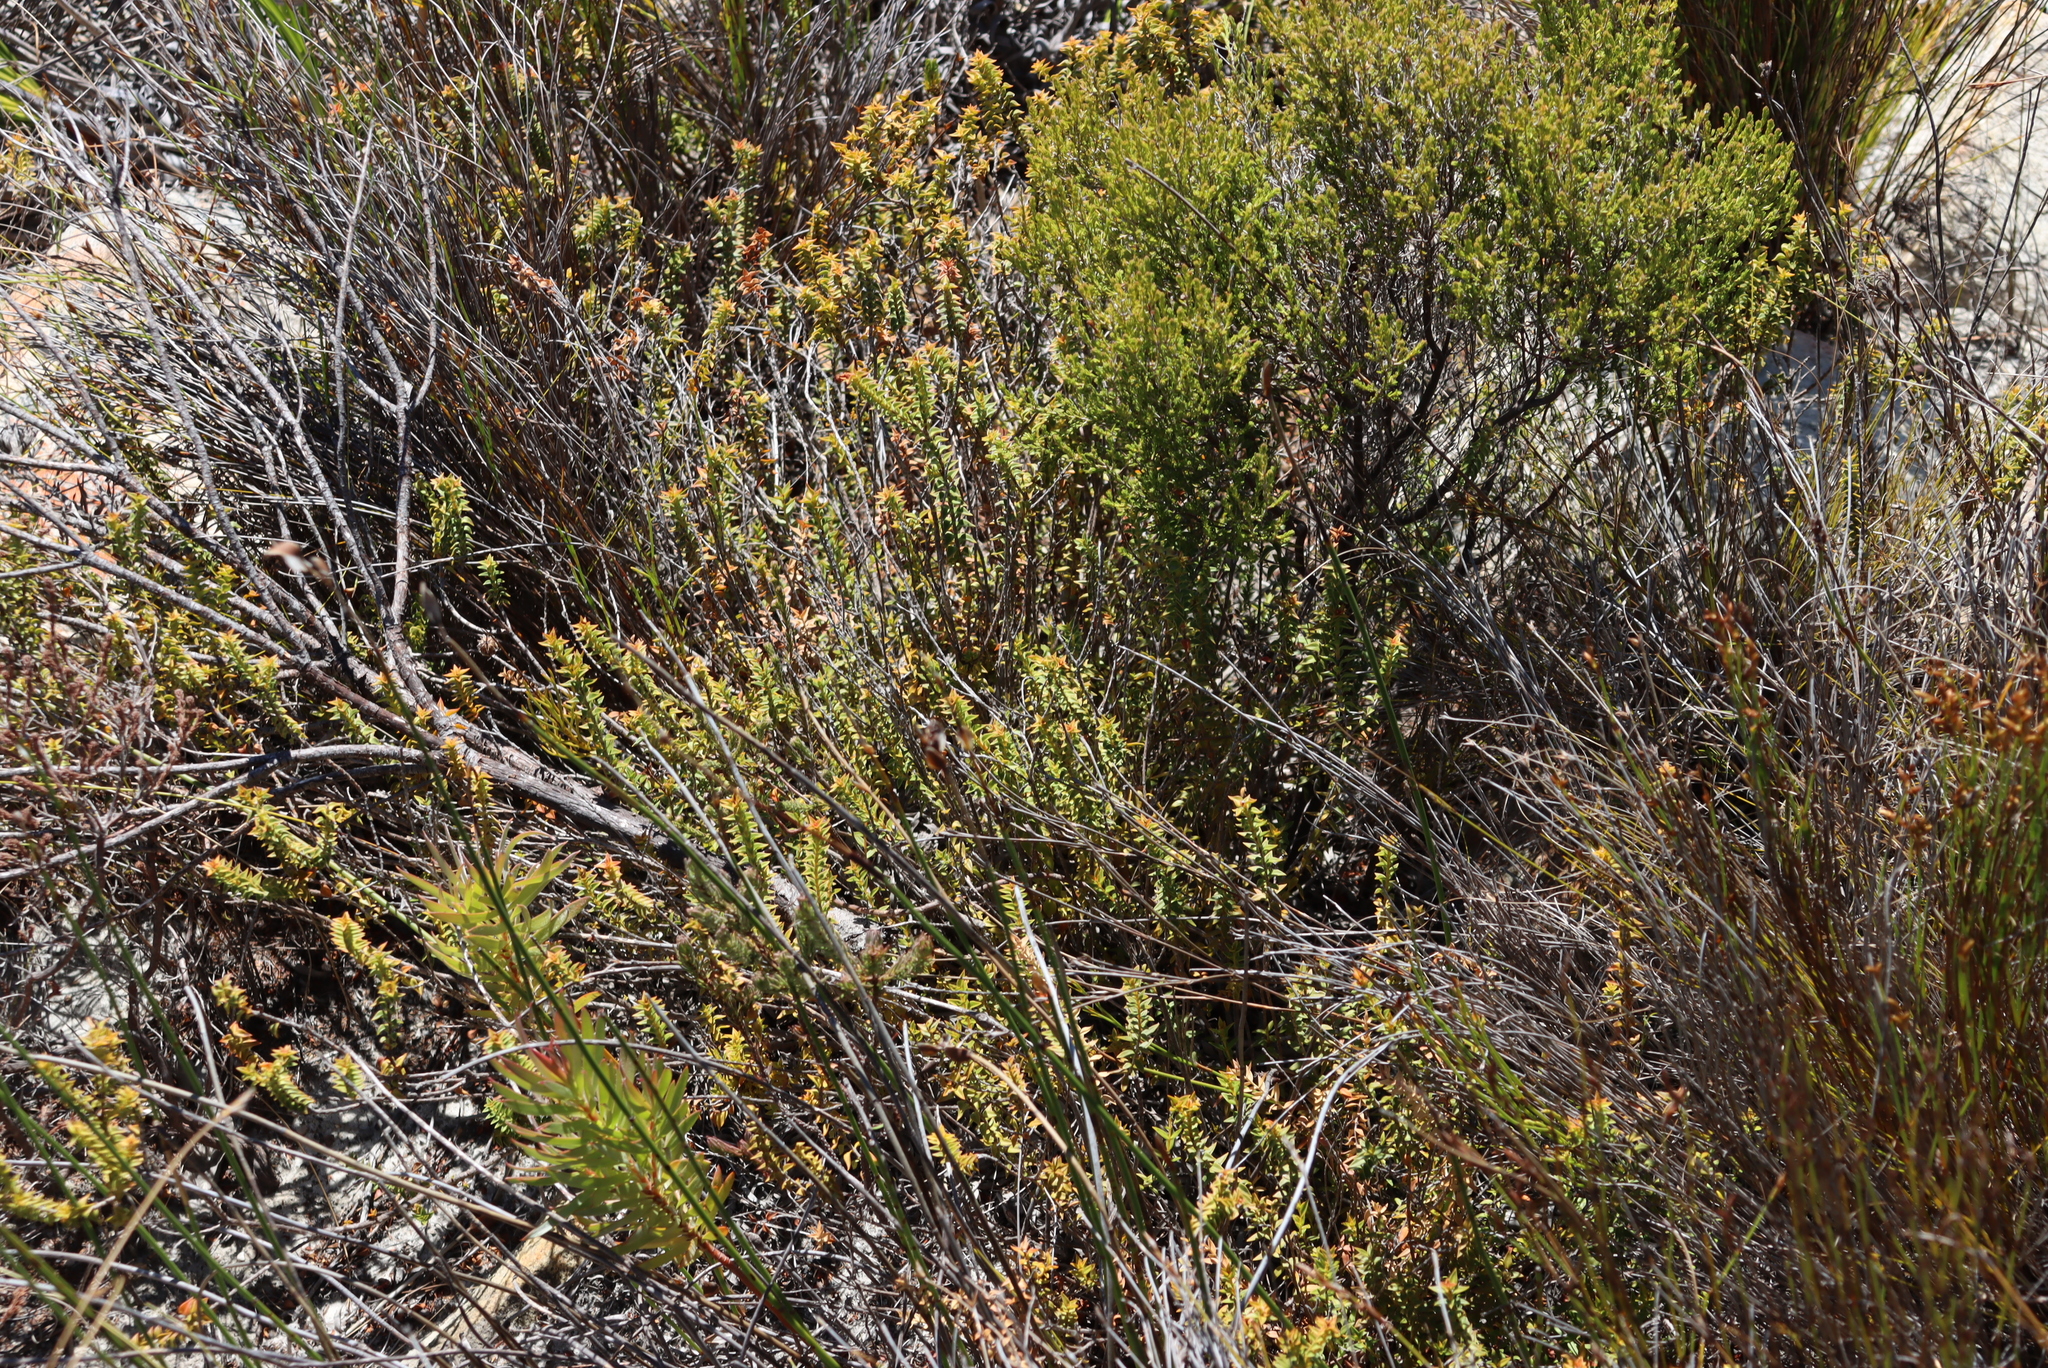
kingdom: Plantae
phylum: Tracheophyta
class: Magnoliopsida
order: Myrtales
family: Penaeaceae
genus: Penaea
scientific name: Penaea mucronata
